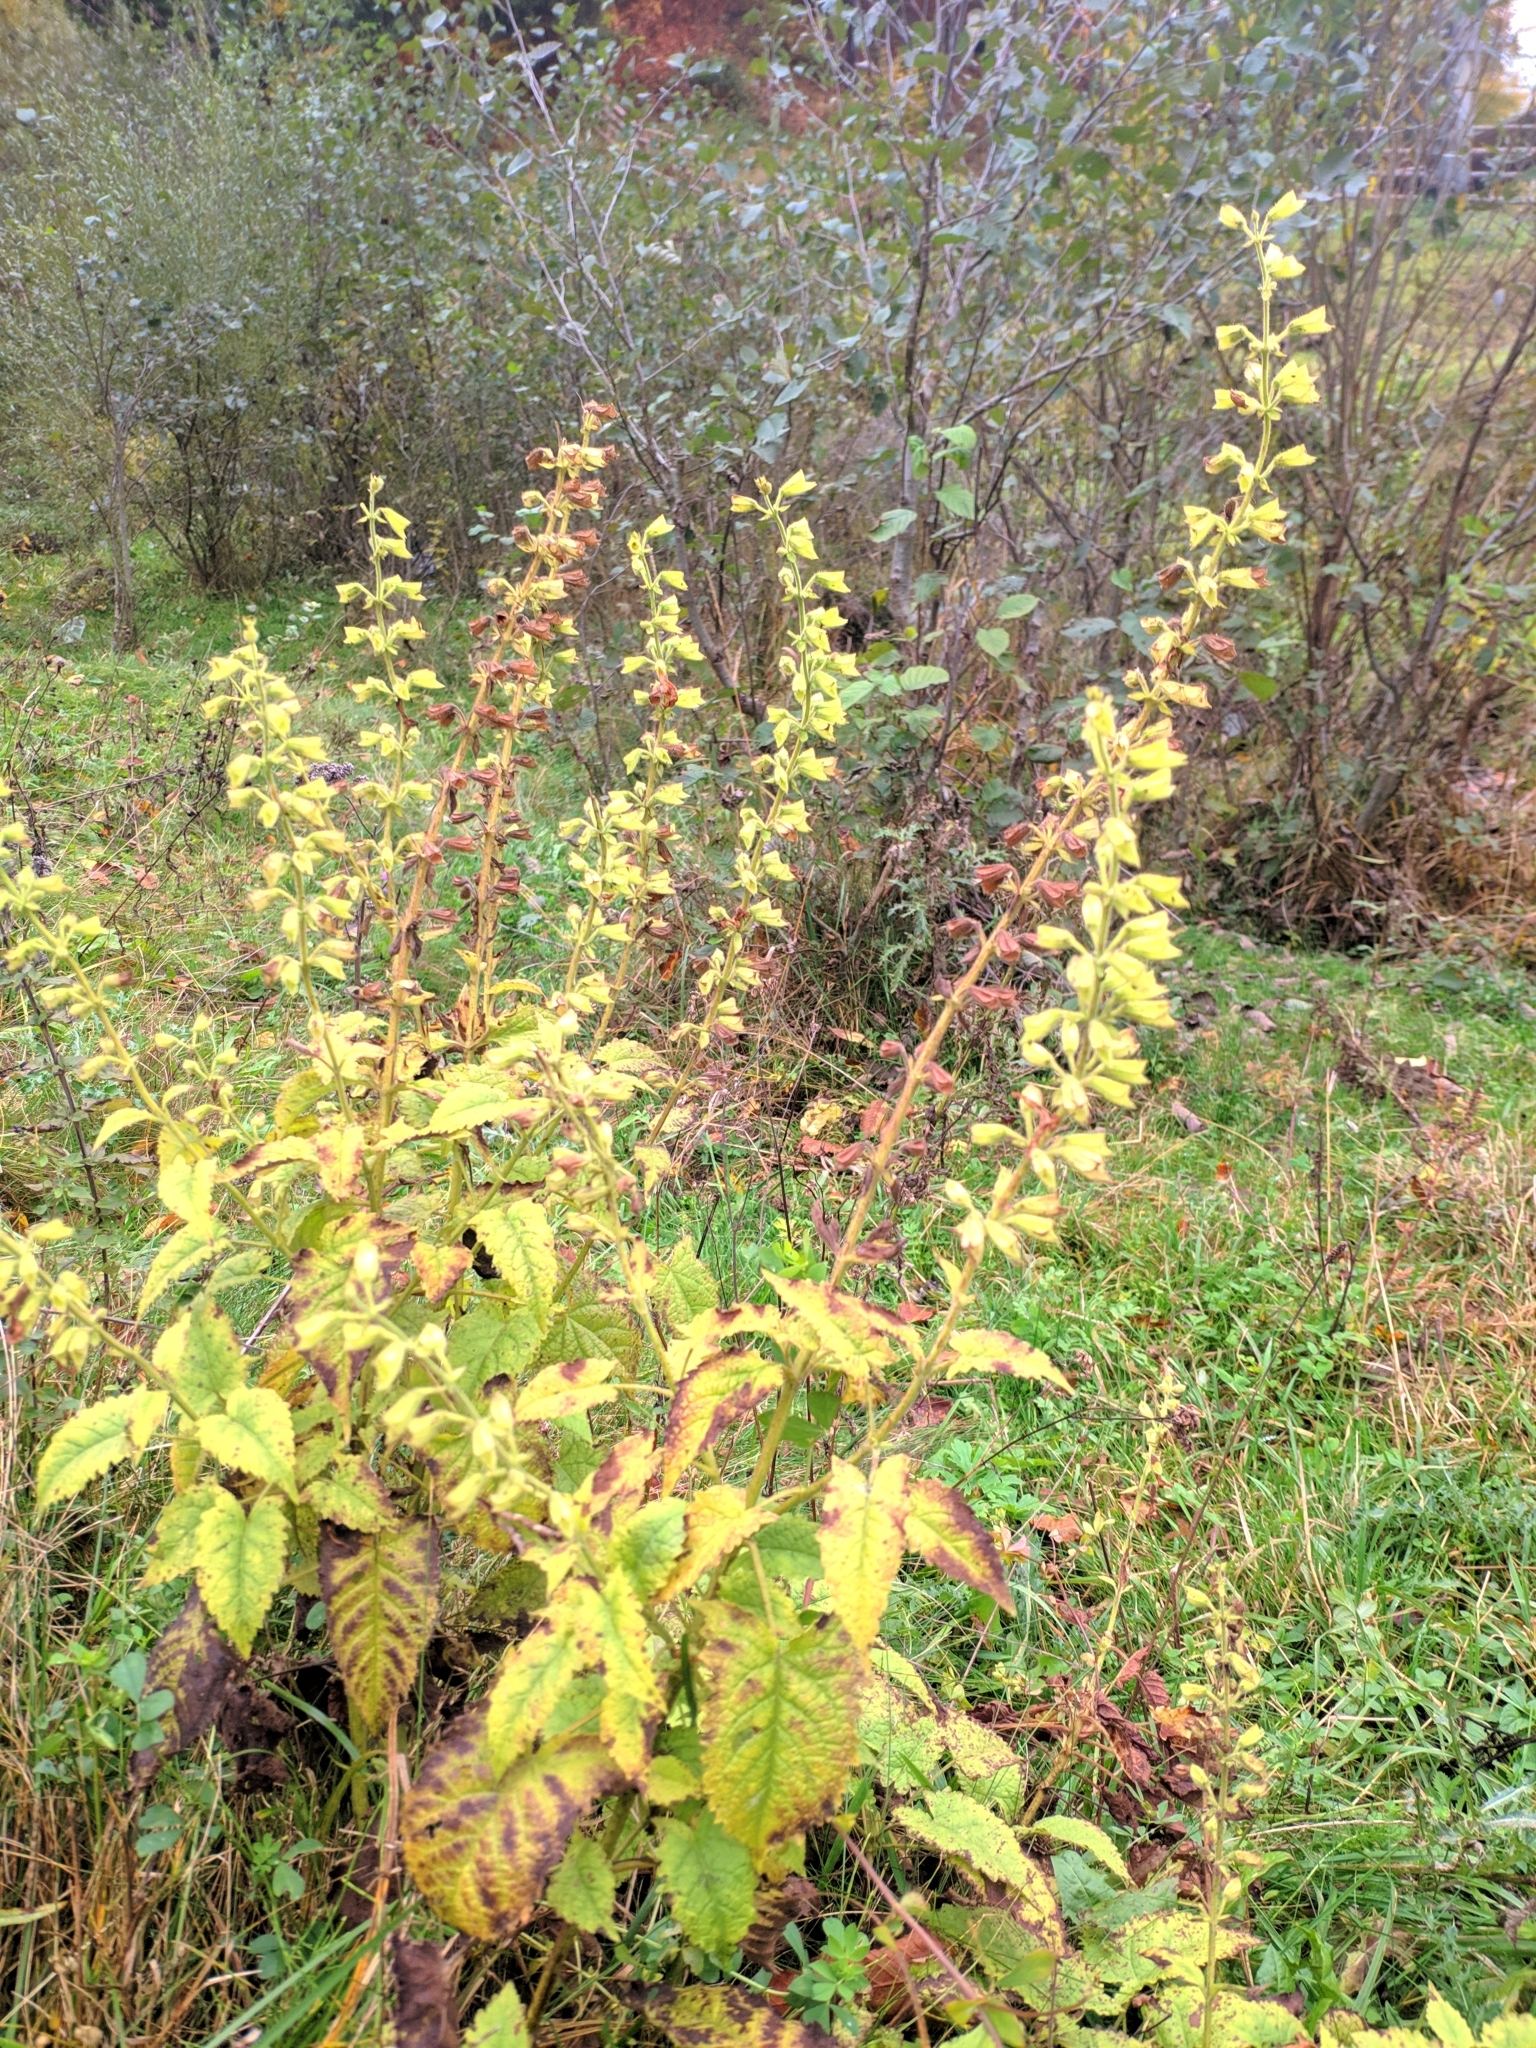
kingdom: Plantae
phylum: Tracheophyta
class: Magnoliopsida
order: Lamiales
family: Lamiaceae
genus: Salvia
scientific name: Salvia glutinosa
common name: Sticky clary
